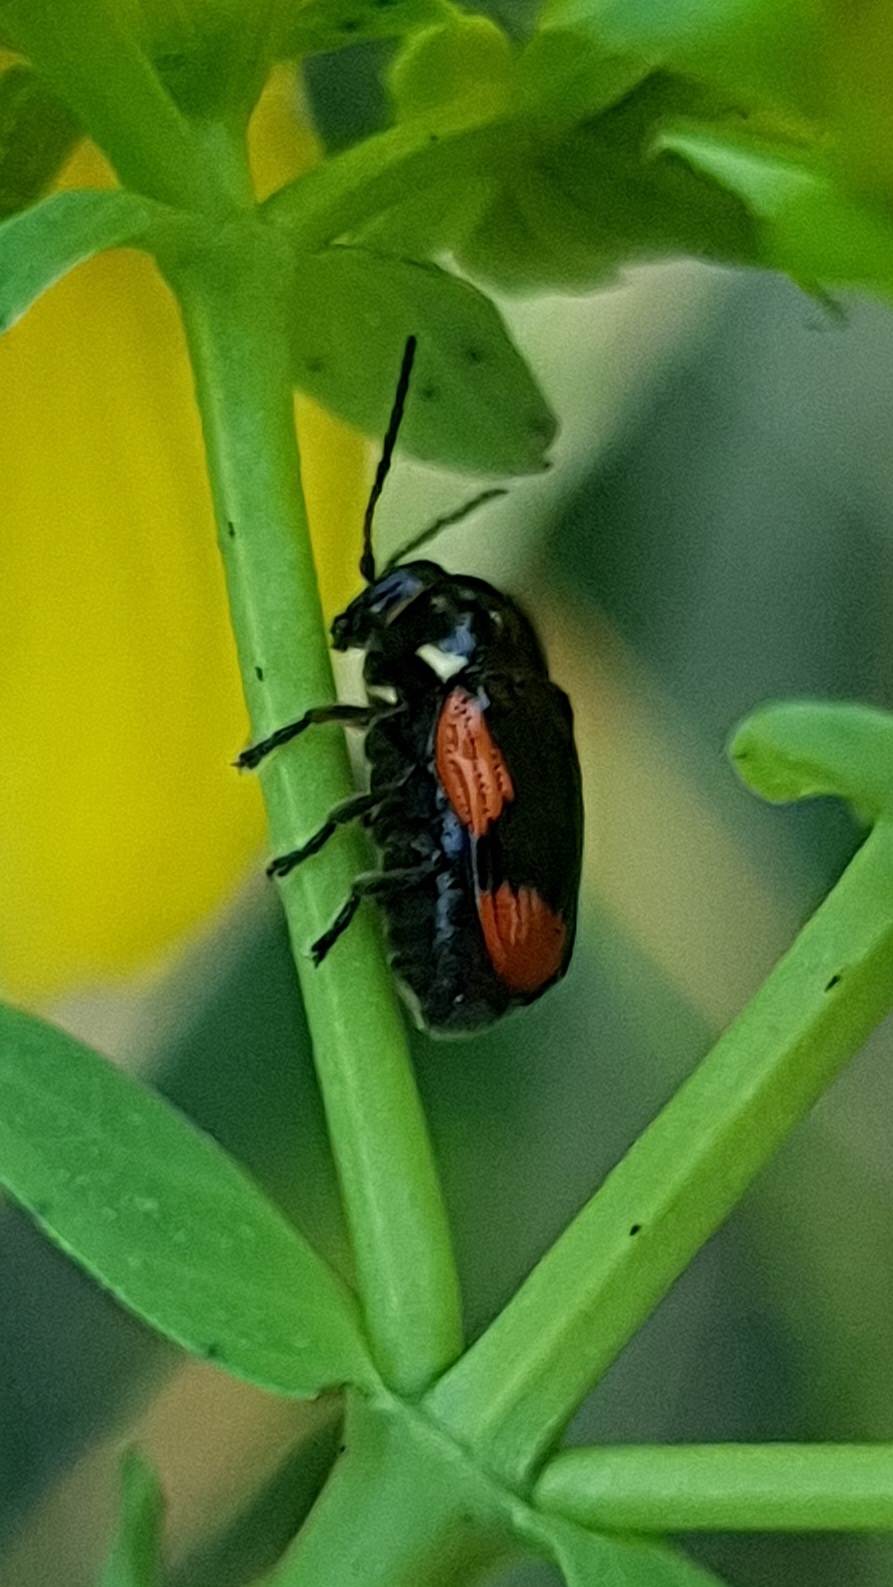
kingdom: Animalia
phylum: Arthropoda
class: Insecta
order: Coleoptera
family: Chrysomelidae
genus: Cryptocephalus
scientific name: Cryptocephalus moraei
